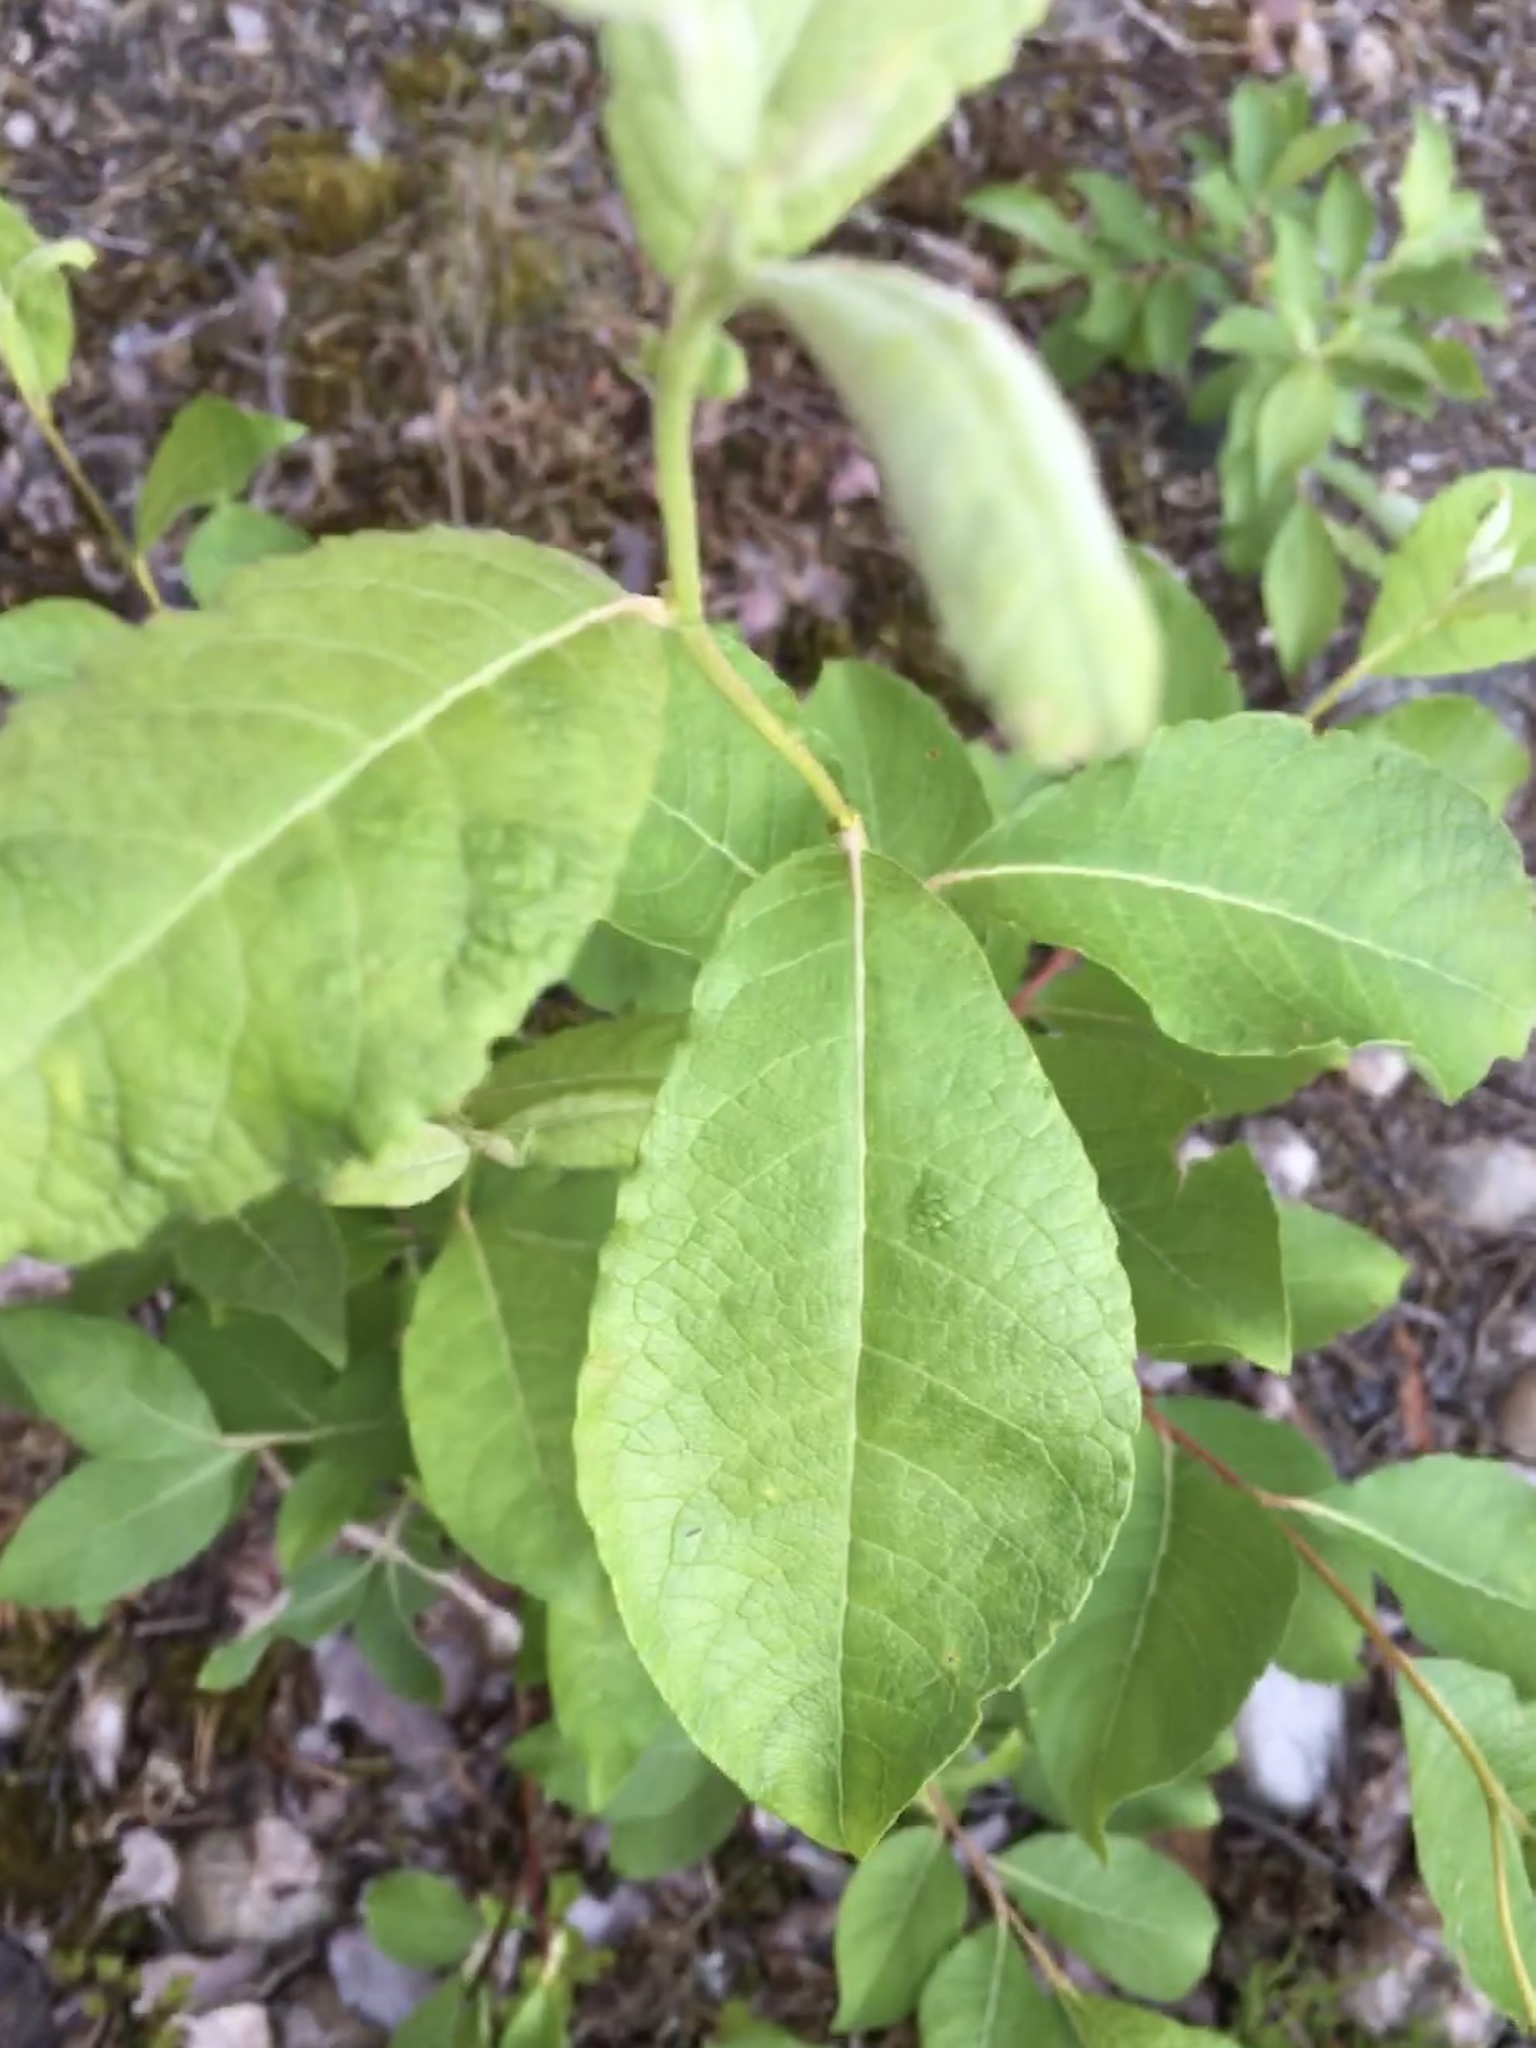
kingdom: Plantae
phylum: Tracheophyta
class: Magnoliopsida
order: Malpighiales
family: Salicaceae
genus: Salix
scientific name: Salix caprea
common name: Goat willow
